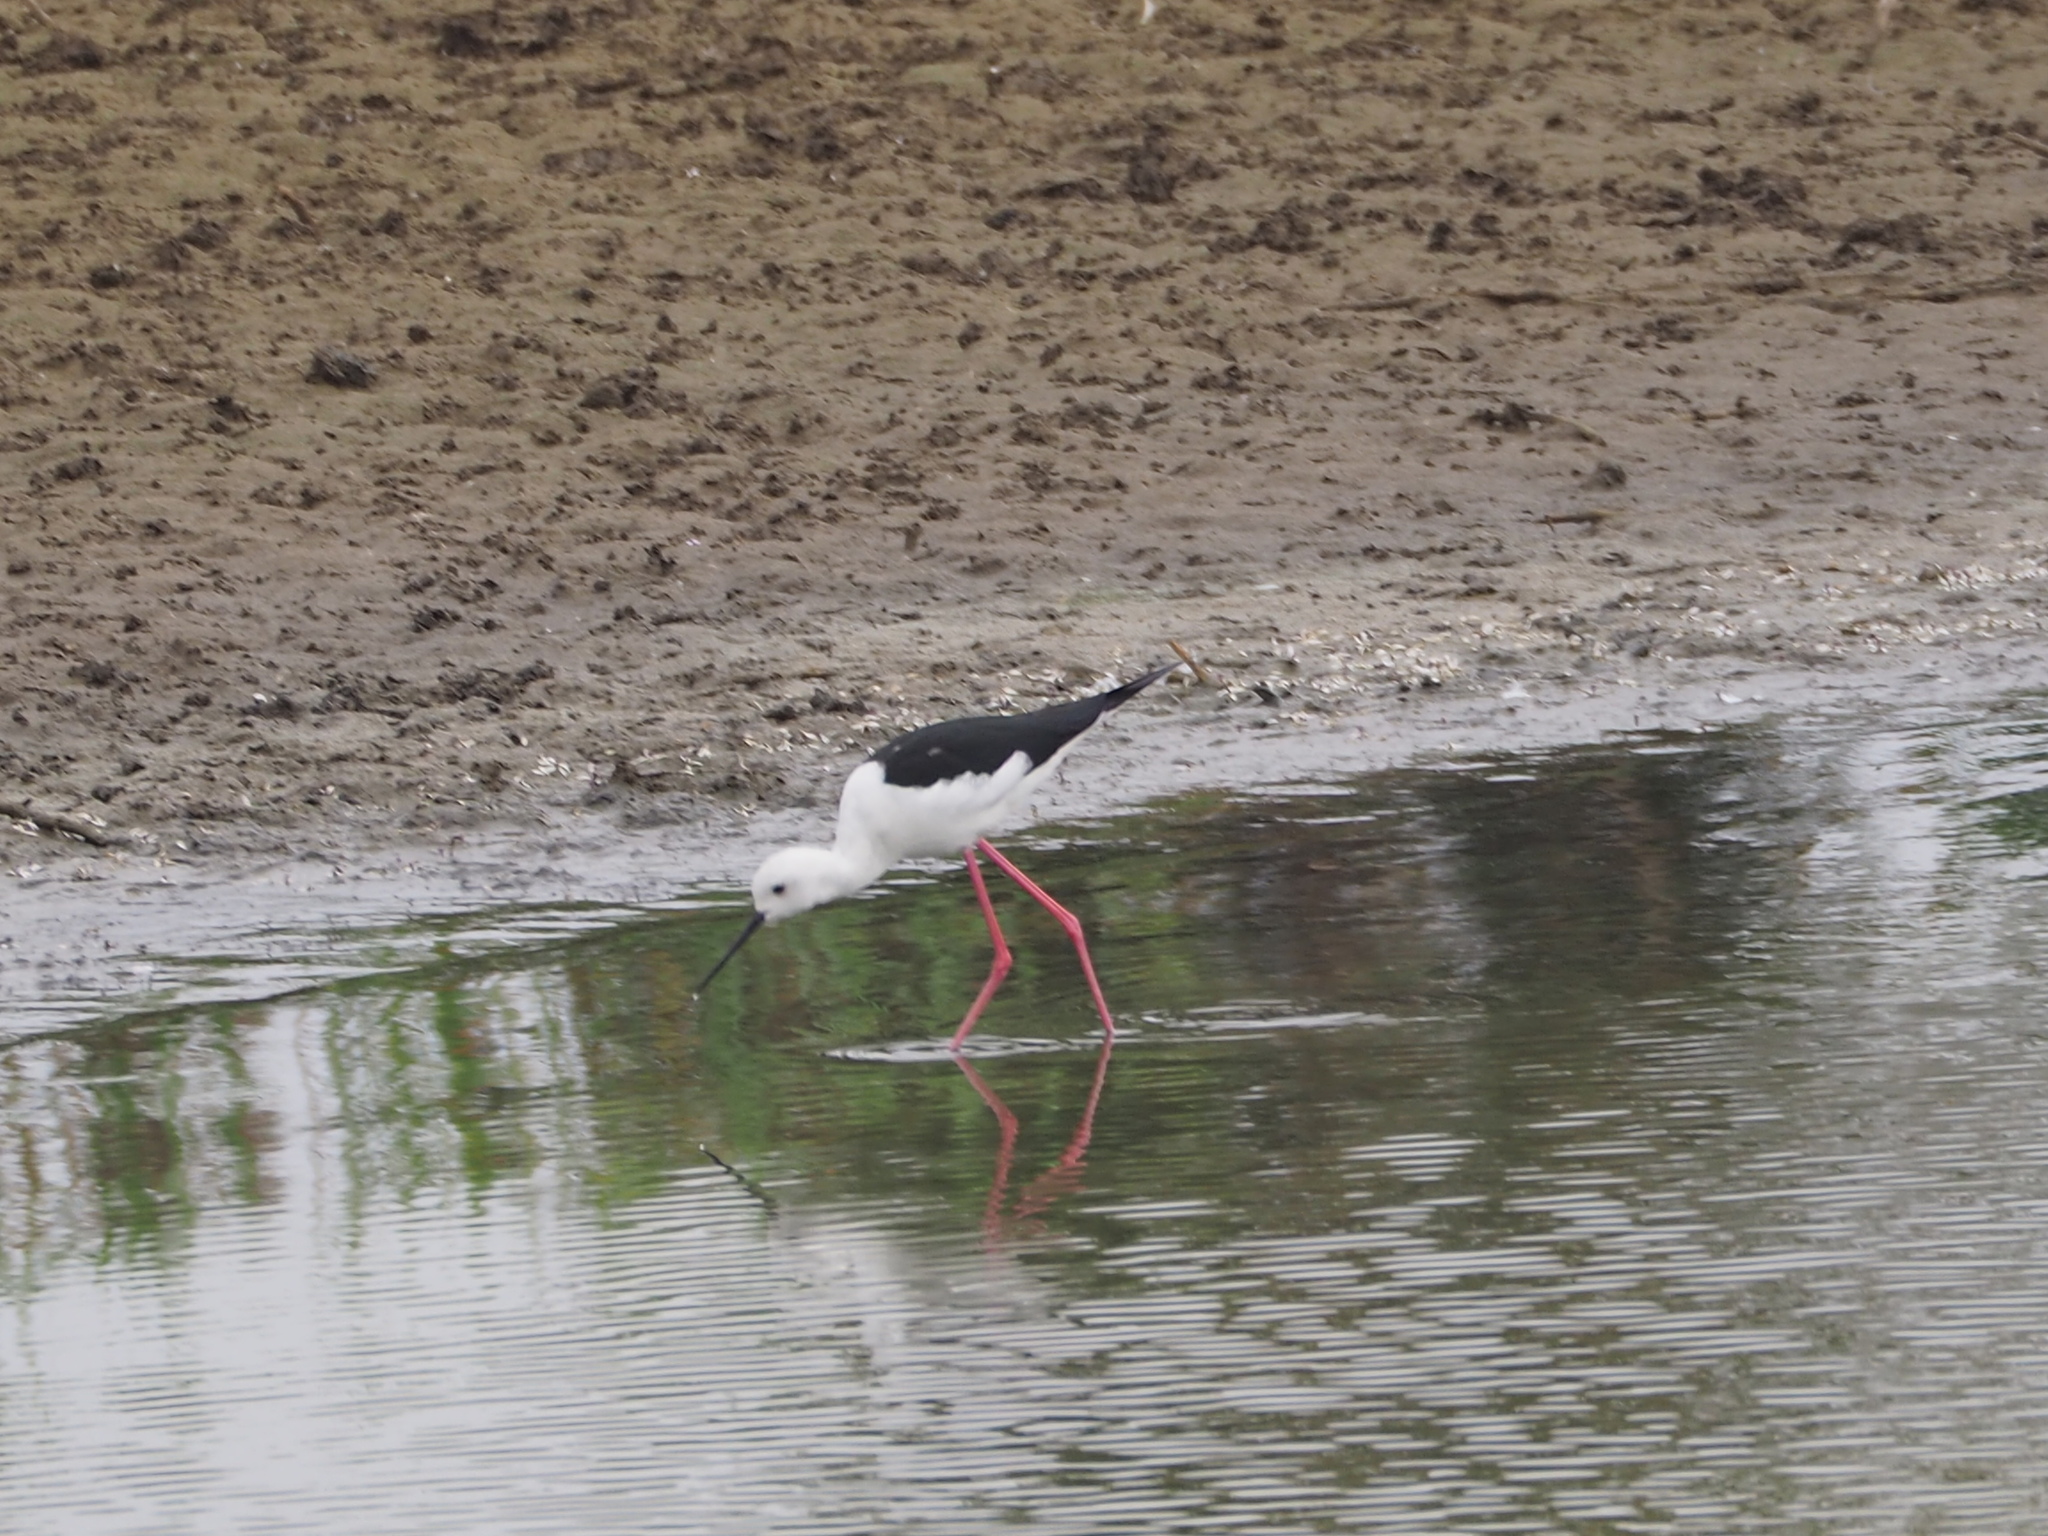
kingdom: Animalia
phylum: Chordata
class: Aves
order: Charadriiformes
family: Recurvirostridae
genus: Himantopus
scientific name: Himantopus himantopus
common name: Black-winged stilt
